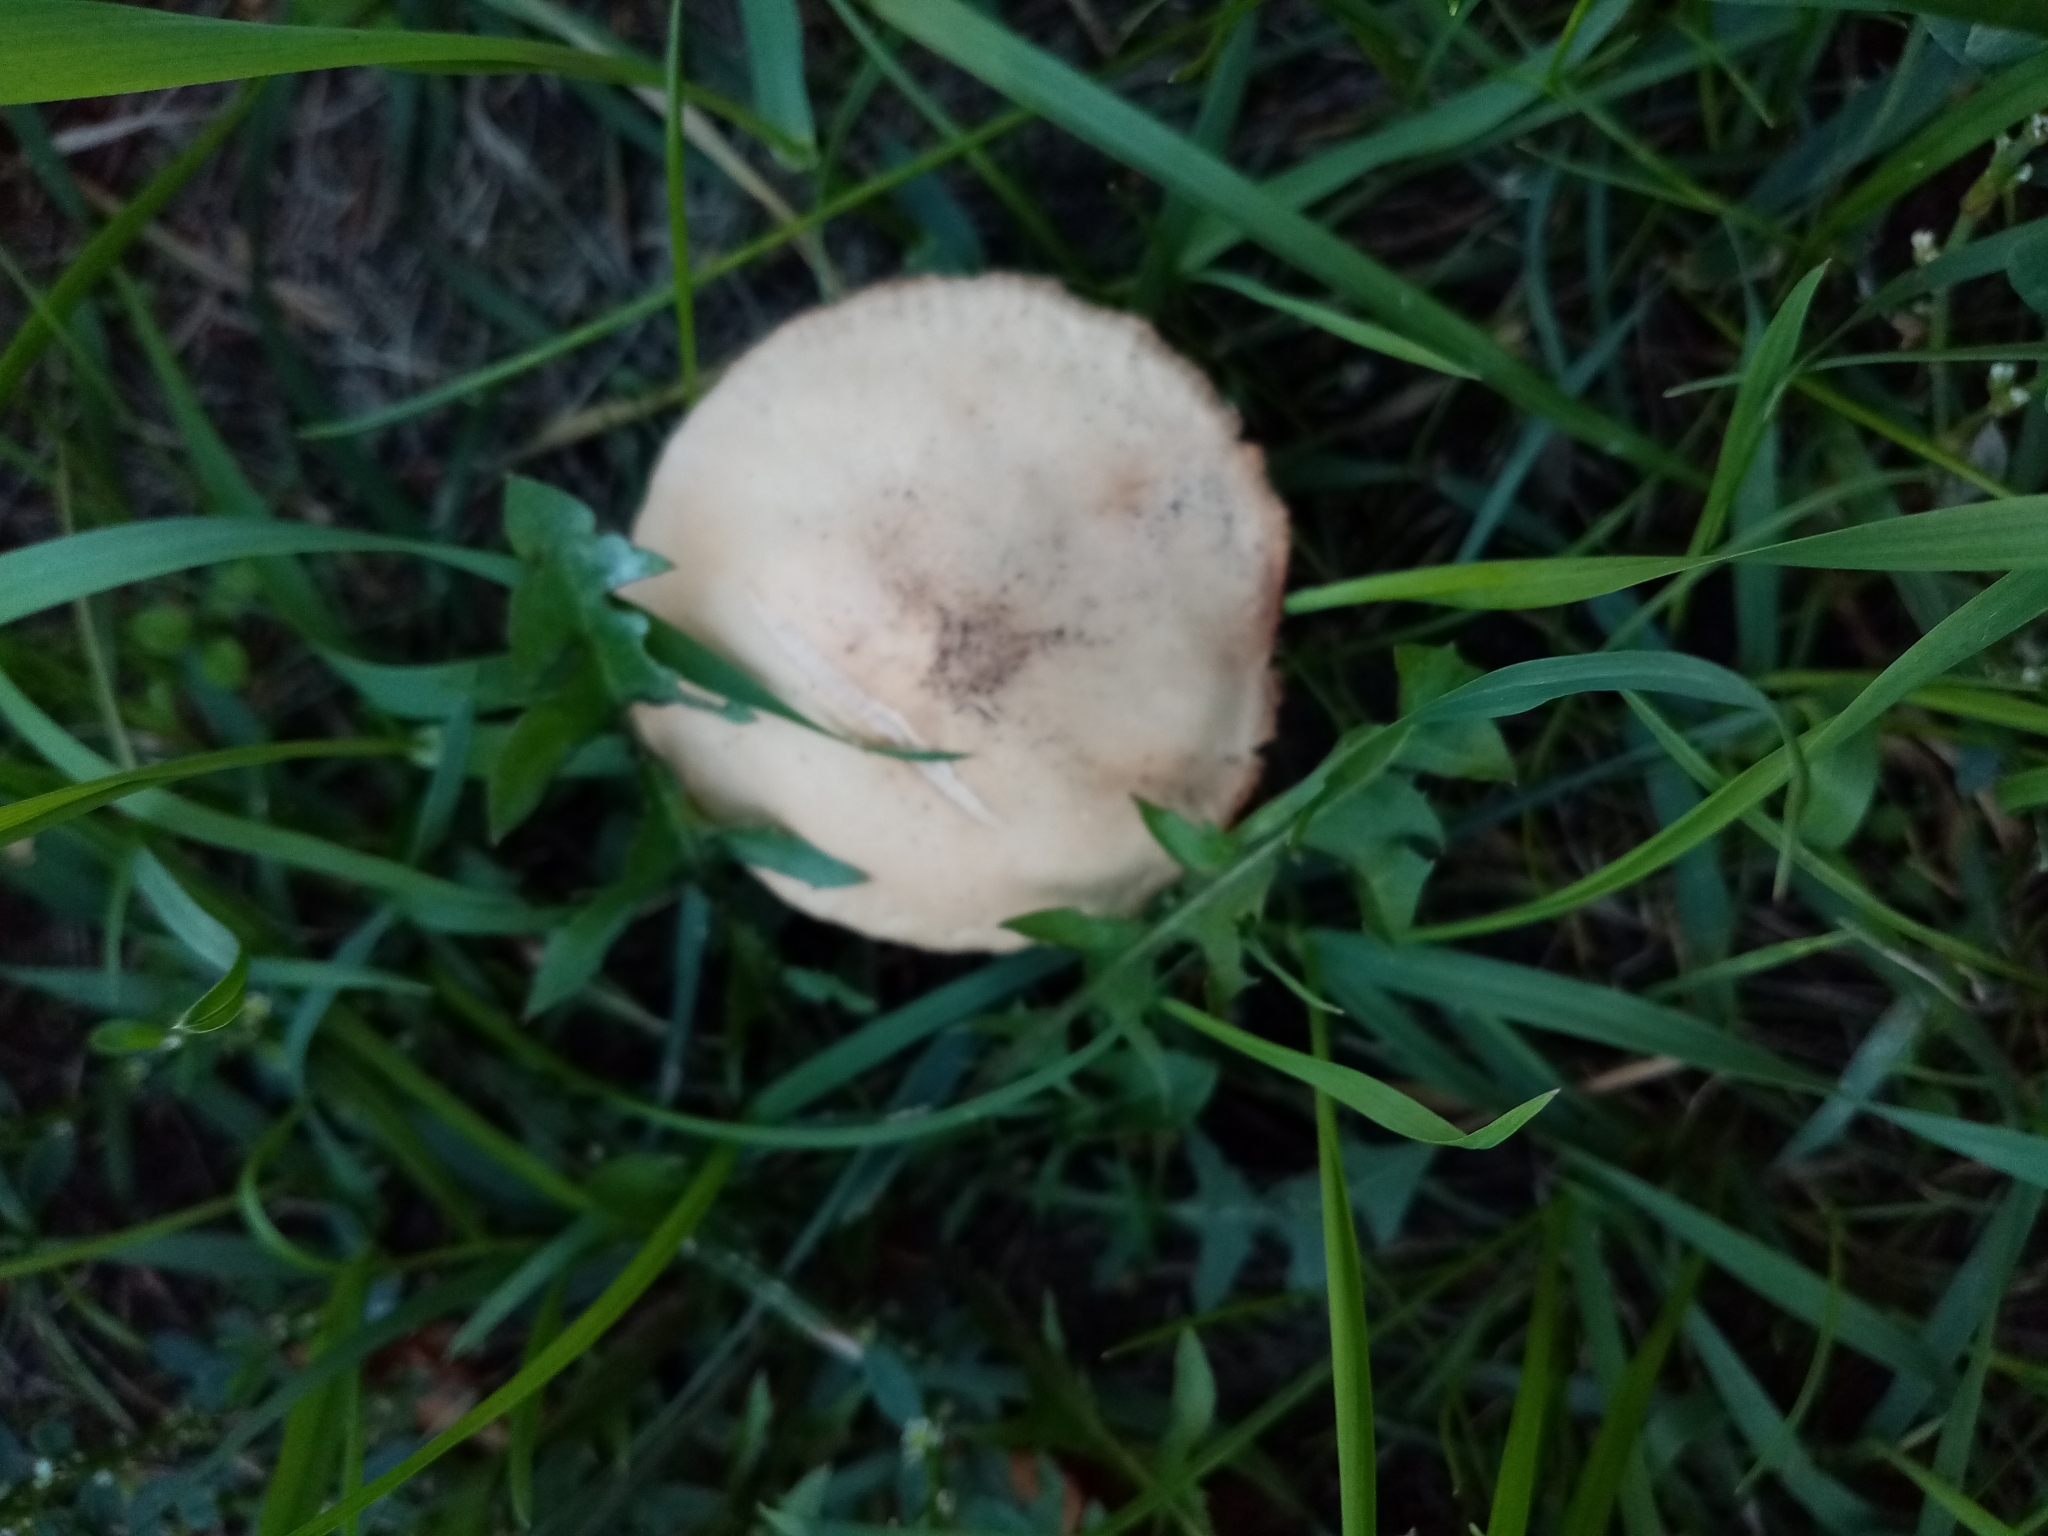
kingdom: Fungi
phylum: Basidiomycota
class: Agaricomycetes
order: Agaricales
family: Marasmiaceae
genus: Marasmius
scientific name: Marasmius oreades
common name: Fairy ring champignon
